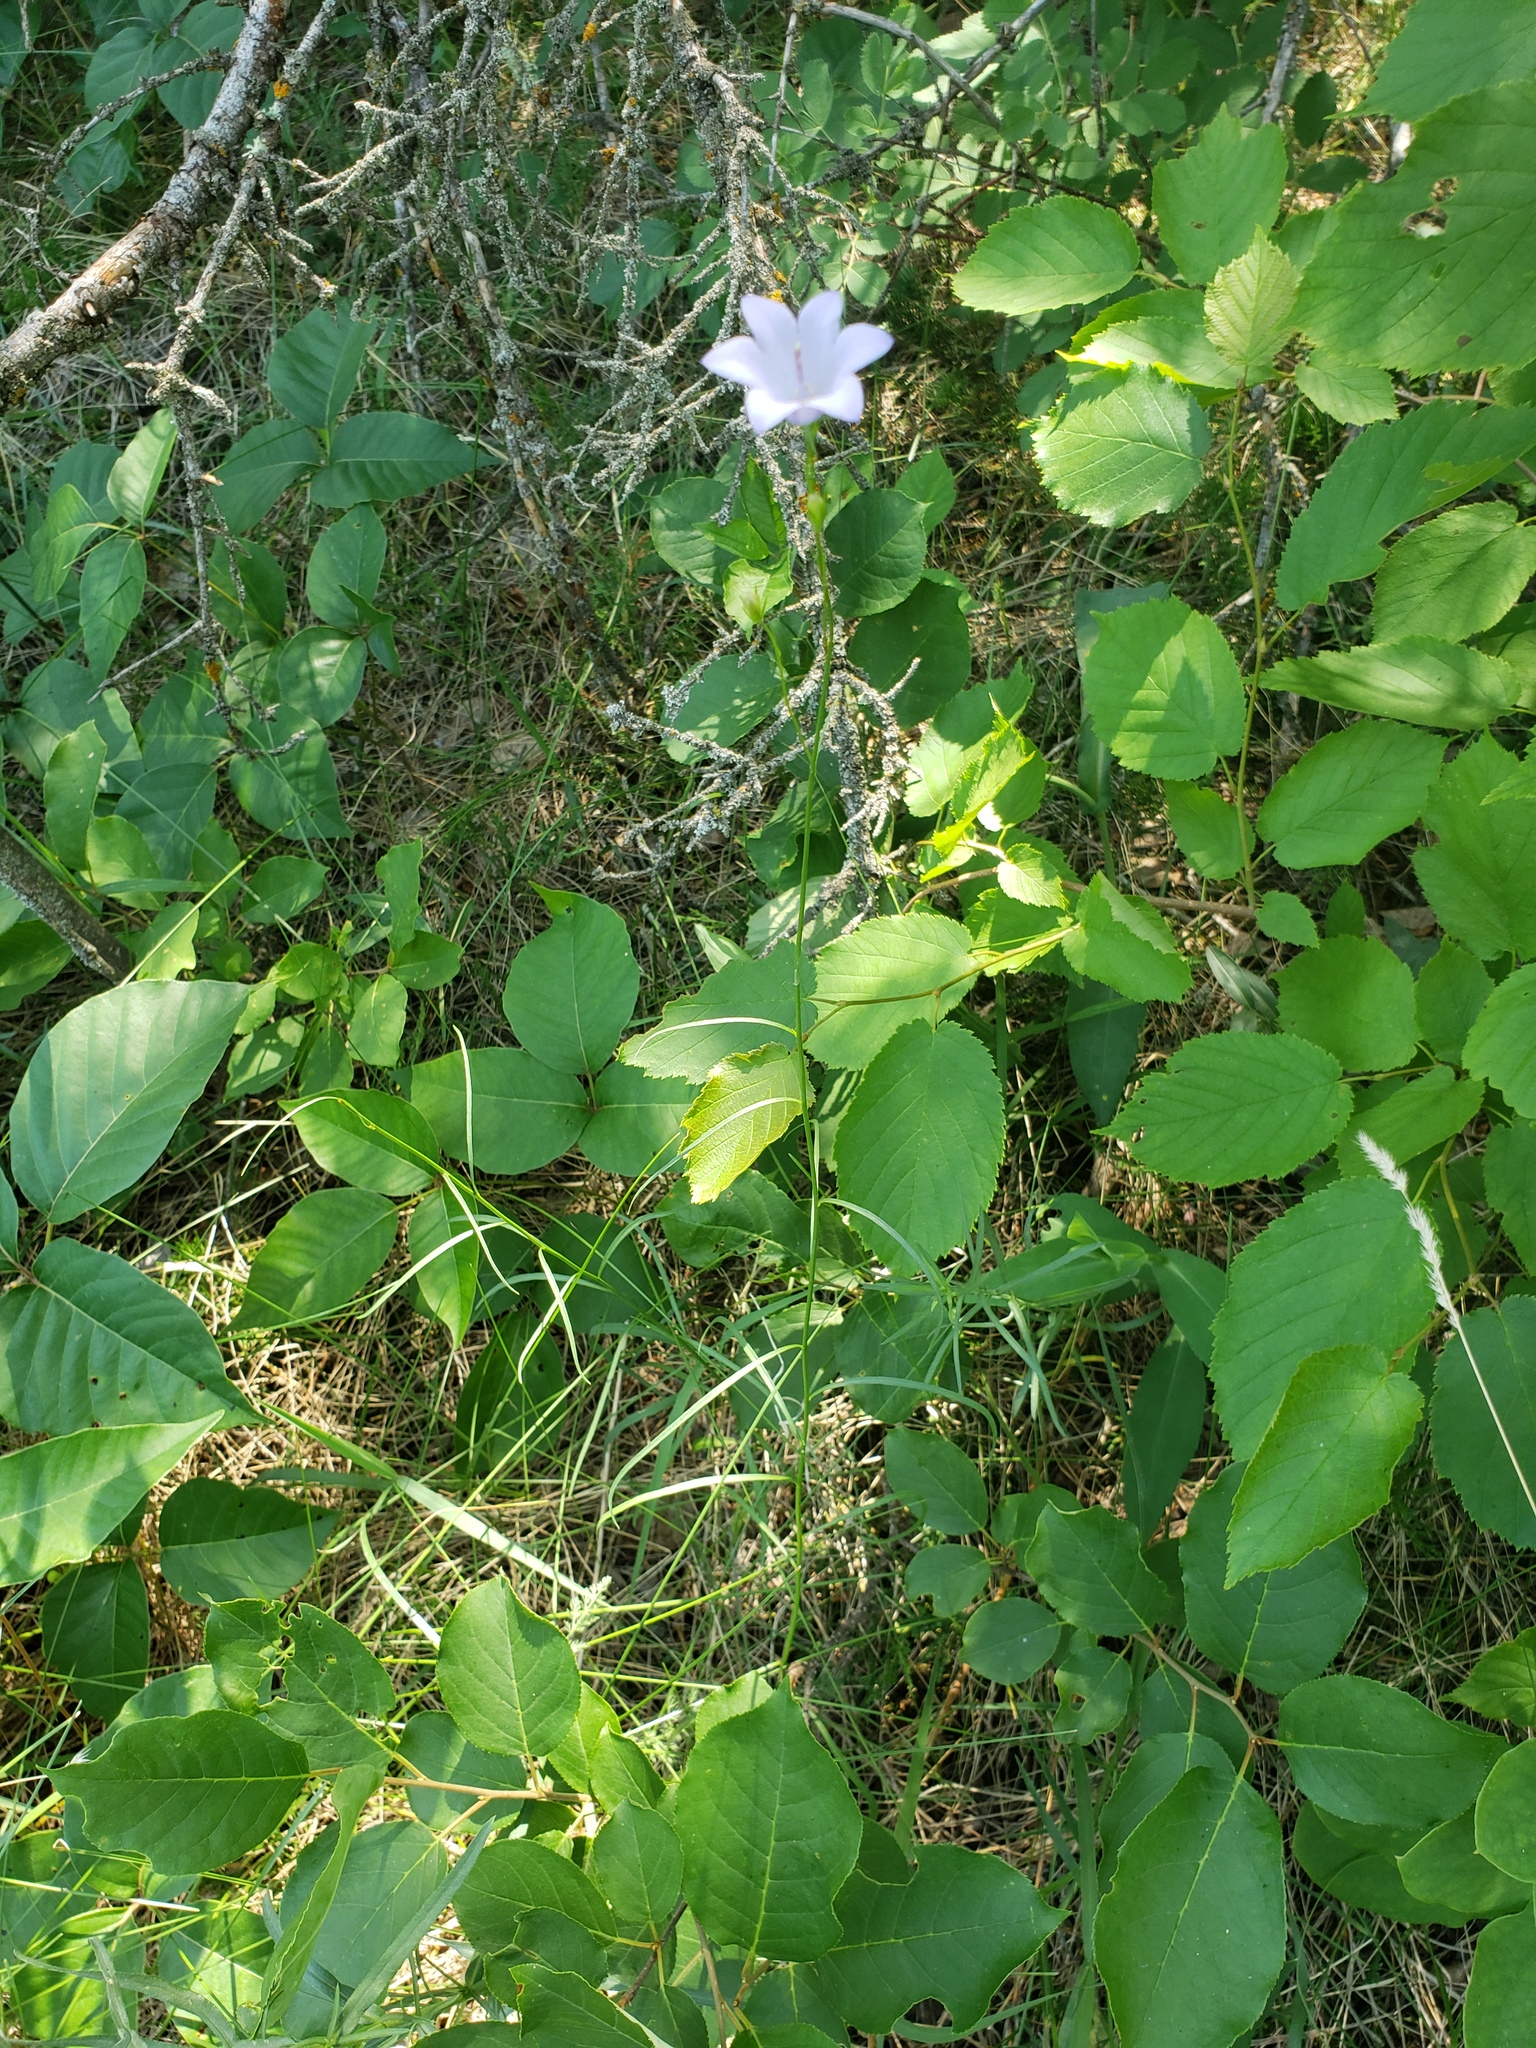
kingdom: Plantae
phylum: Tracheophyta
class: Magnoliopsida
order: Asterales
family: Campanulaceae
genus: Campanula
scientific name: Campanula petiolata
